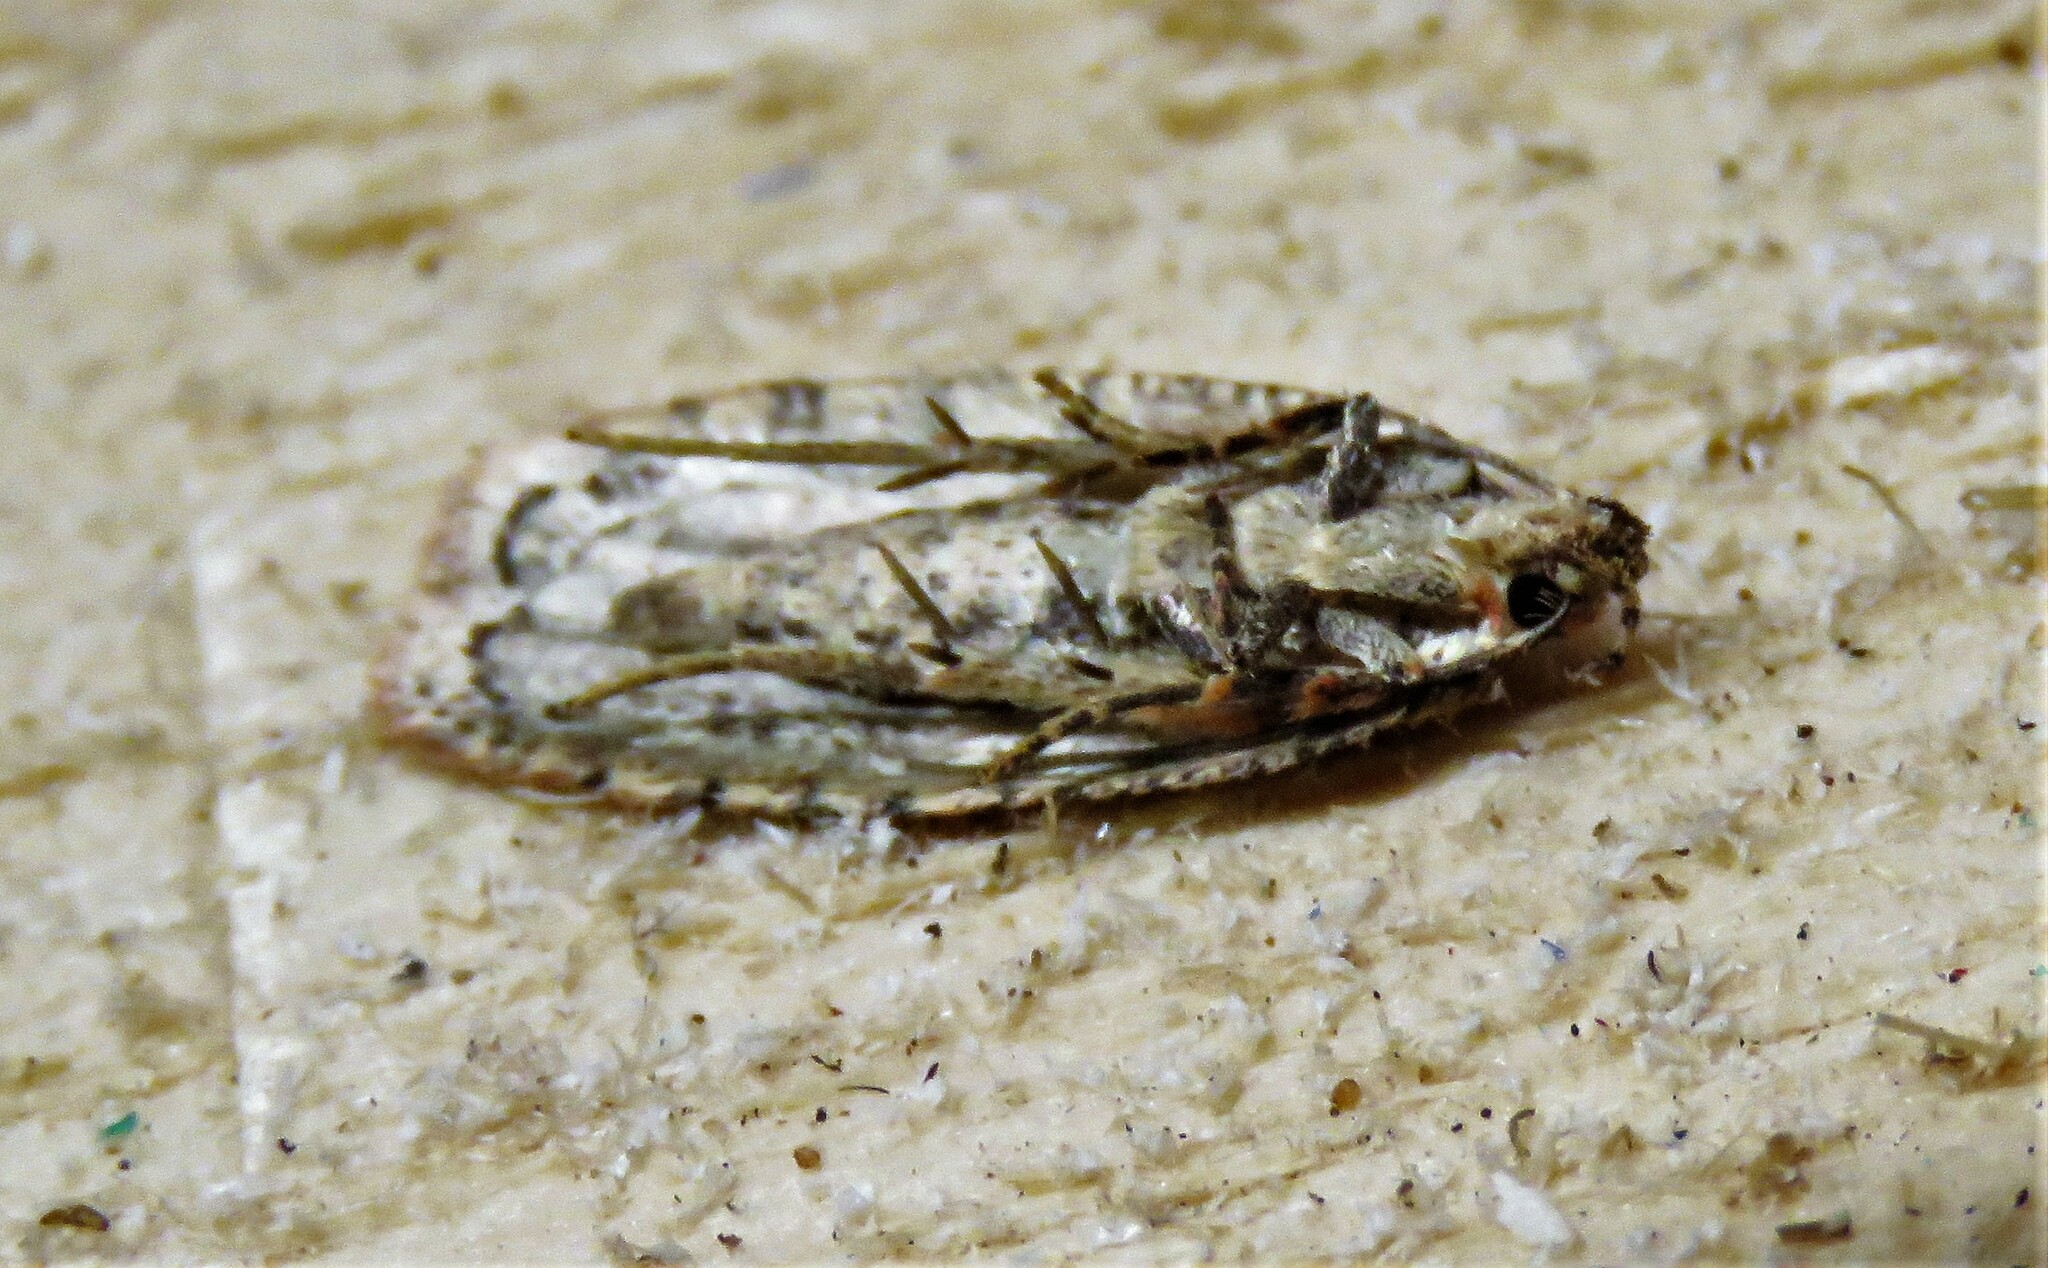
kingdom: Animalia
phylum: Arthropoda
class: Insecta
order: Lepidoptera
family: Depressariidae
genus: Agonopterix
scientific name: Agonopterix pulvipennella
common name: Goldenrod leafffolder
